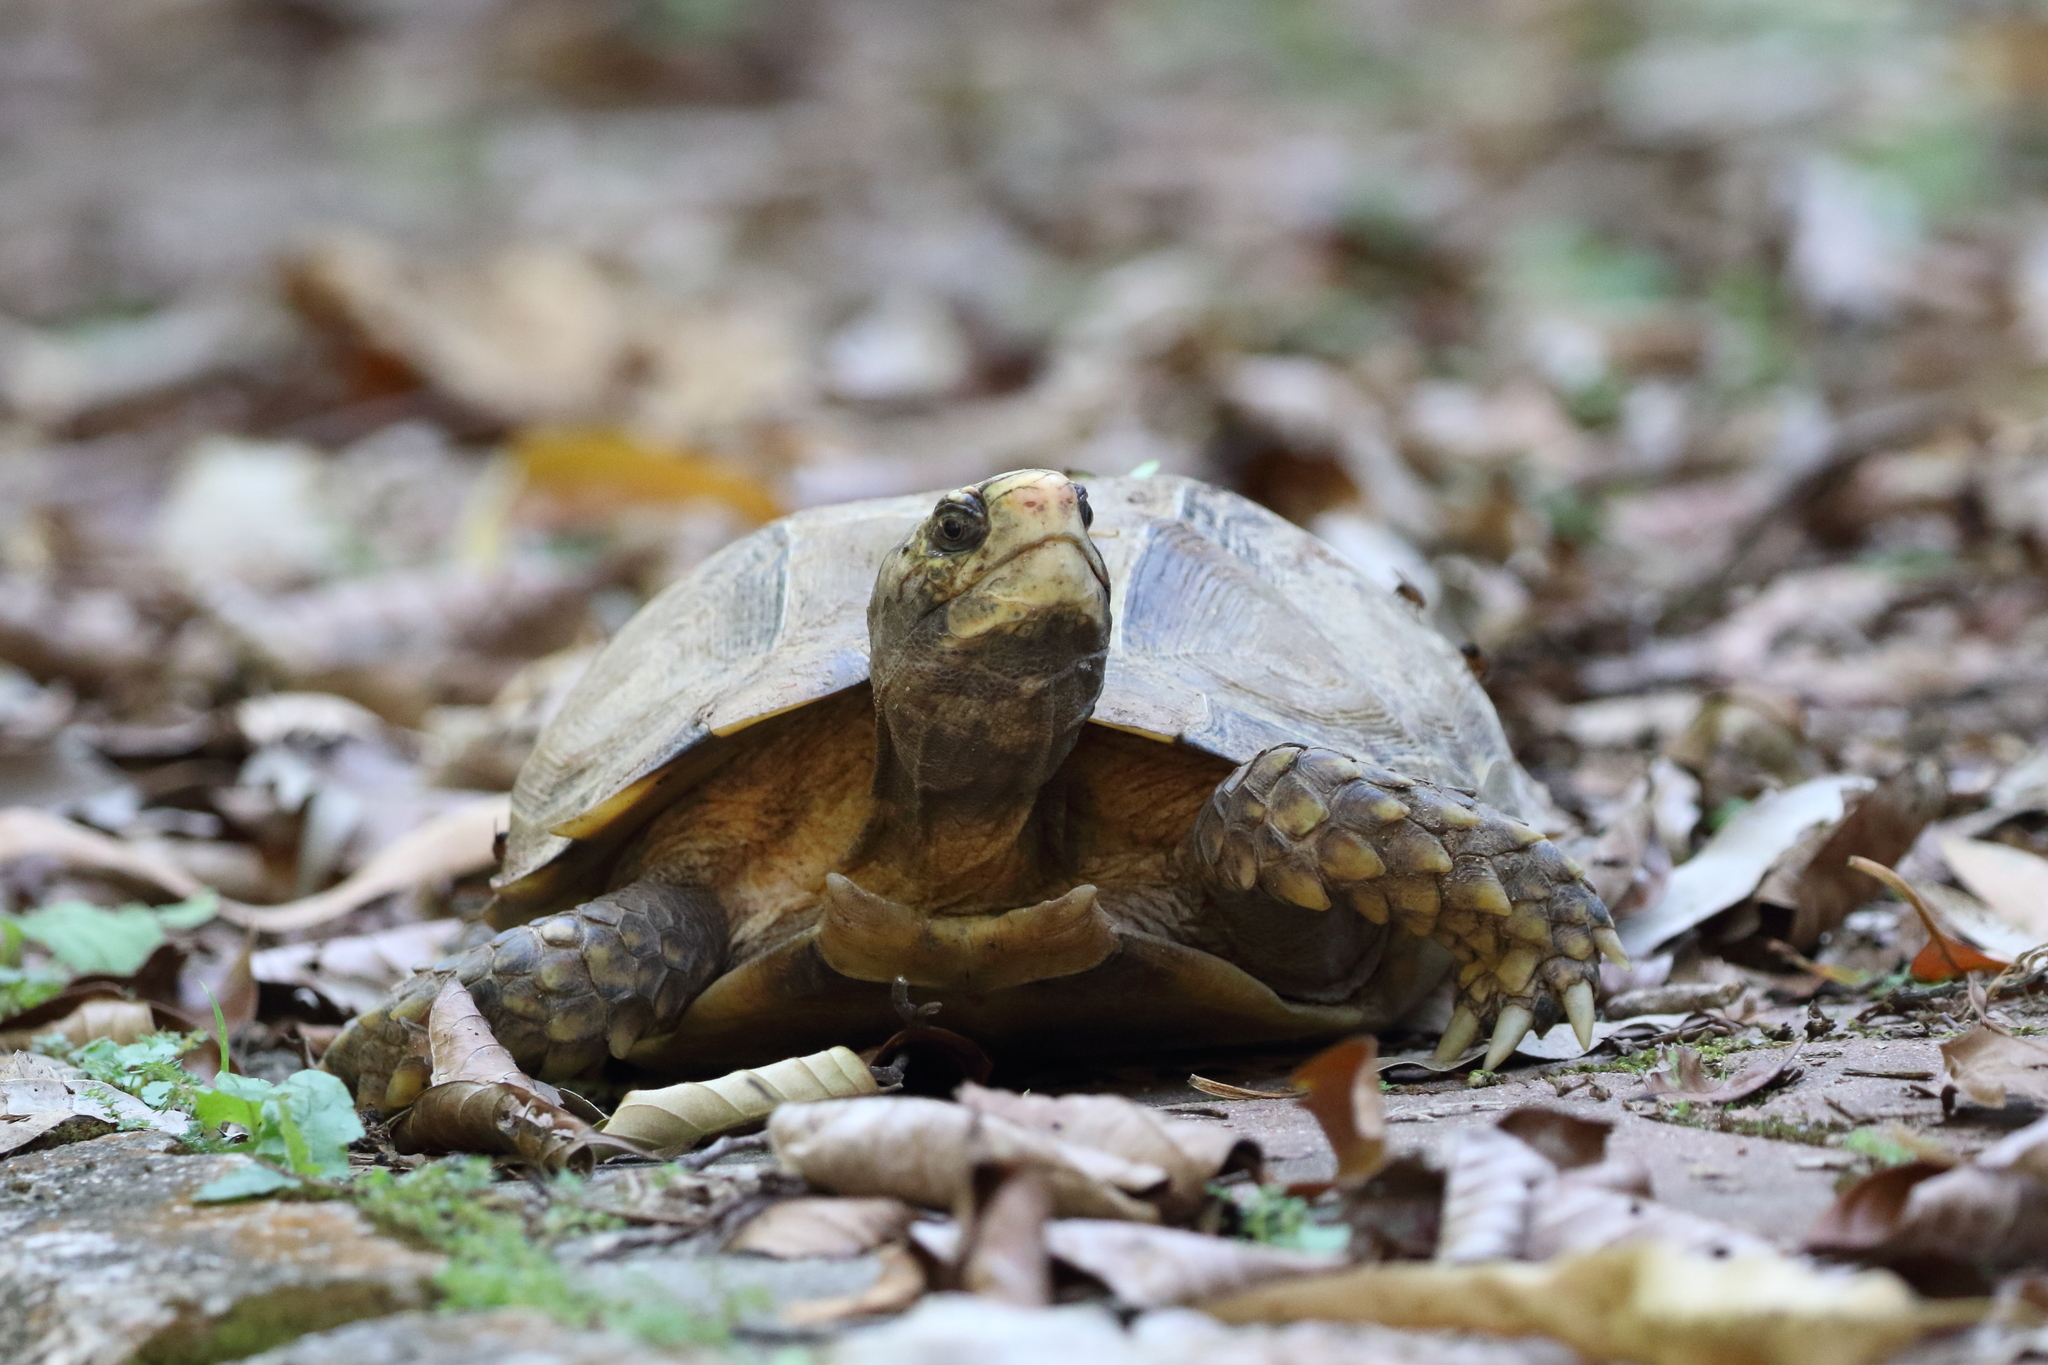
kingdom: Animalia
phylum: Chordata
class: Testudines
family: Testudinidae
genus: Manouria
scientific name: Manouria impressa
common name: Impressed tortoise
